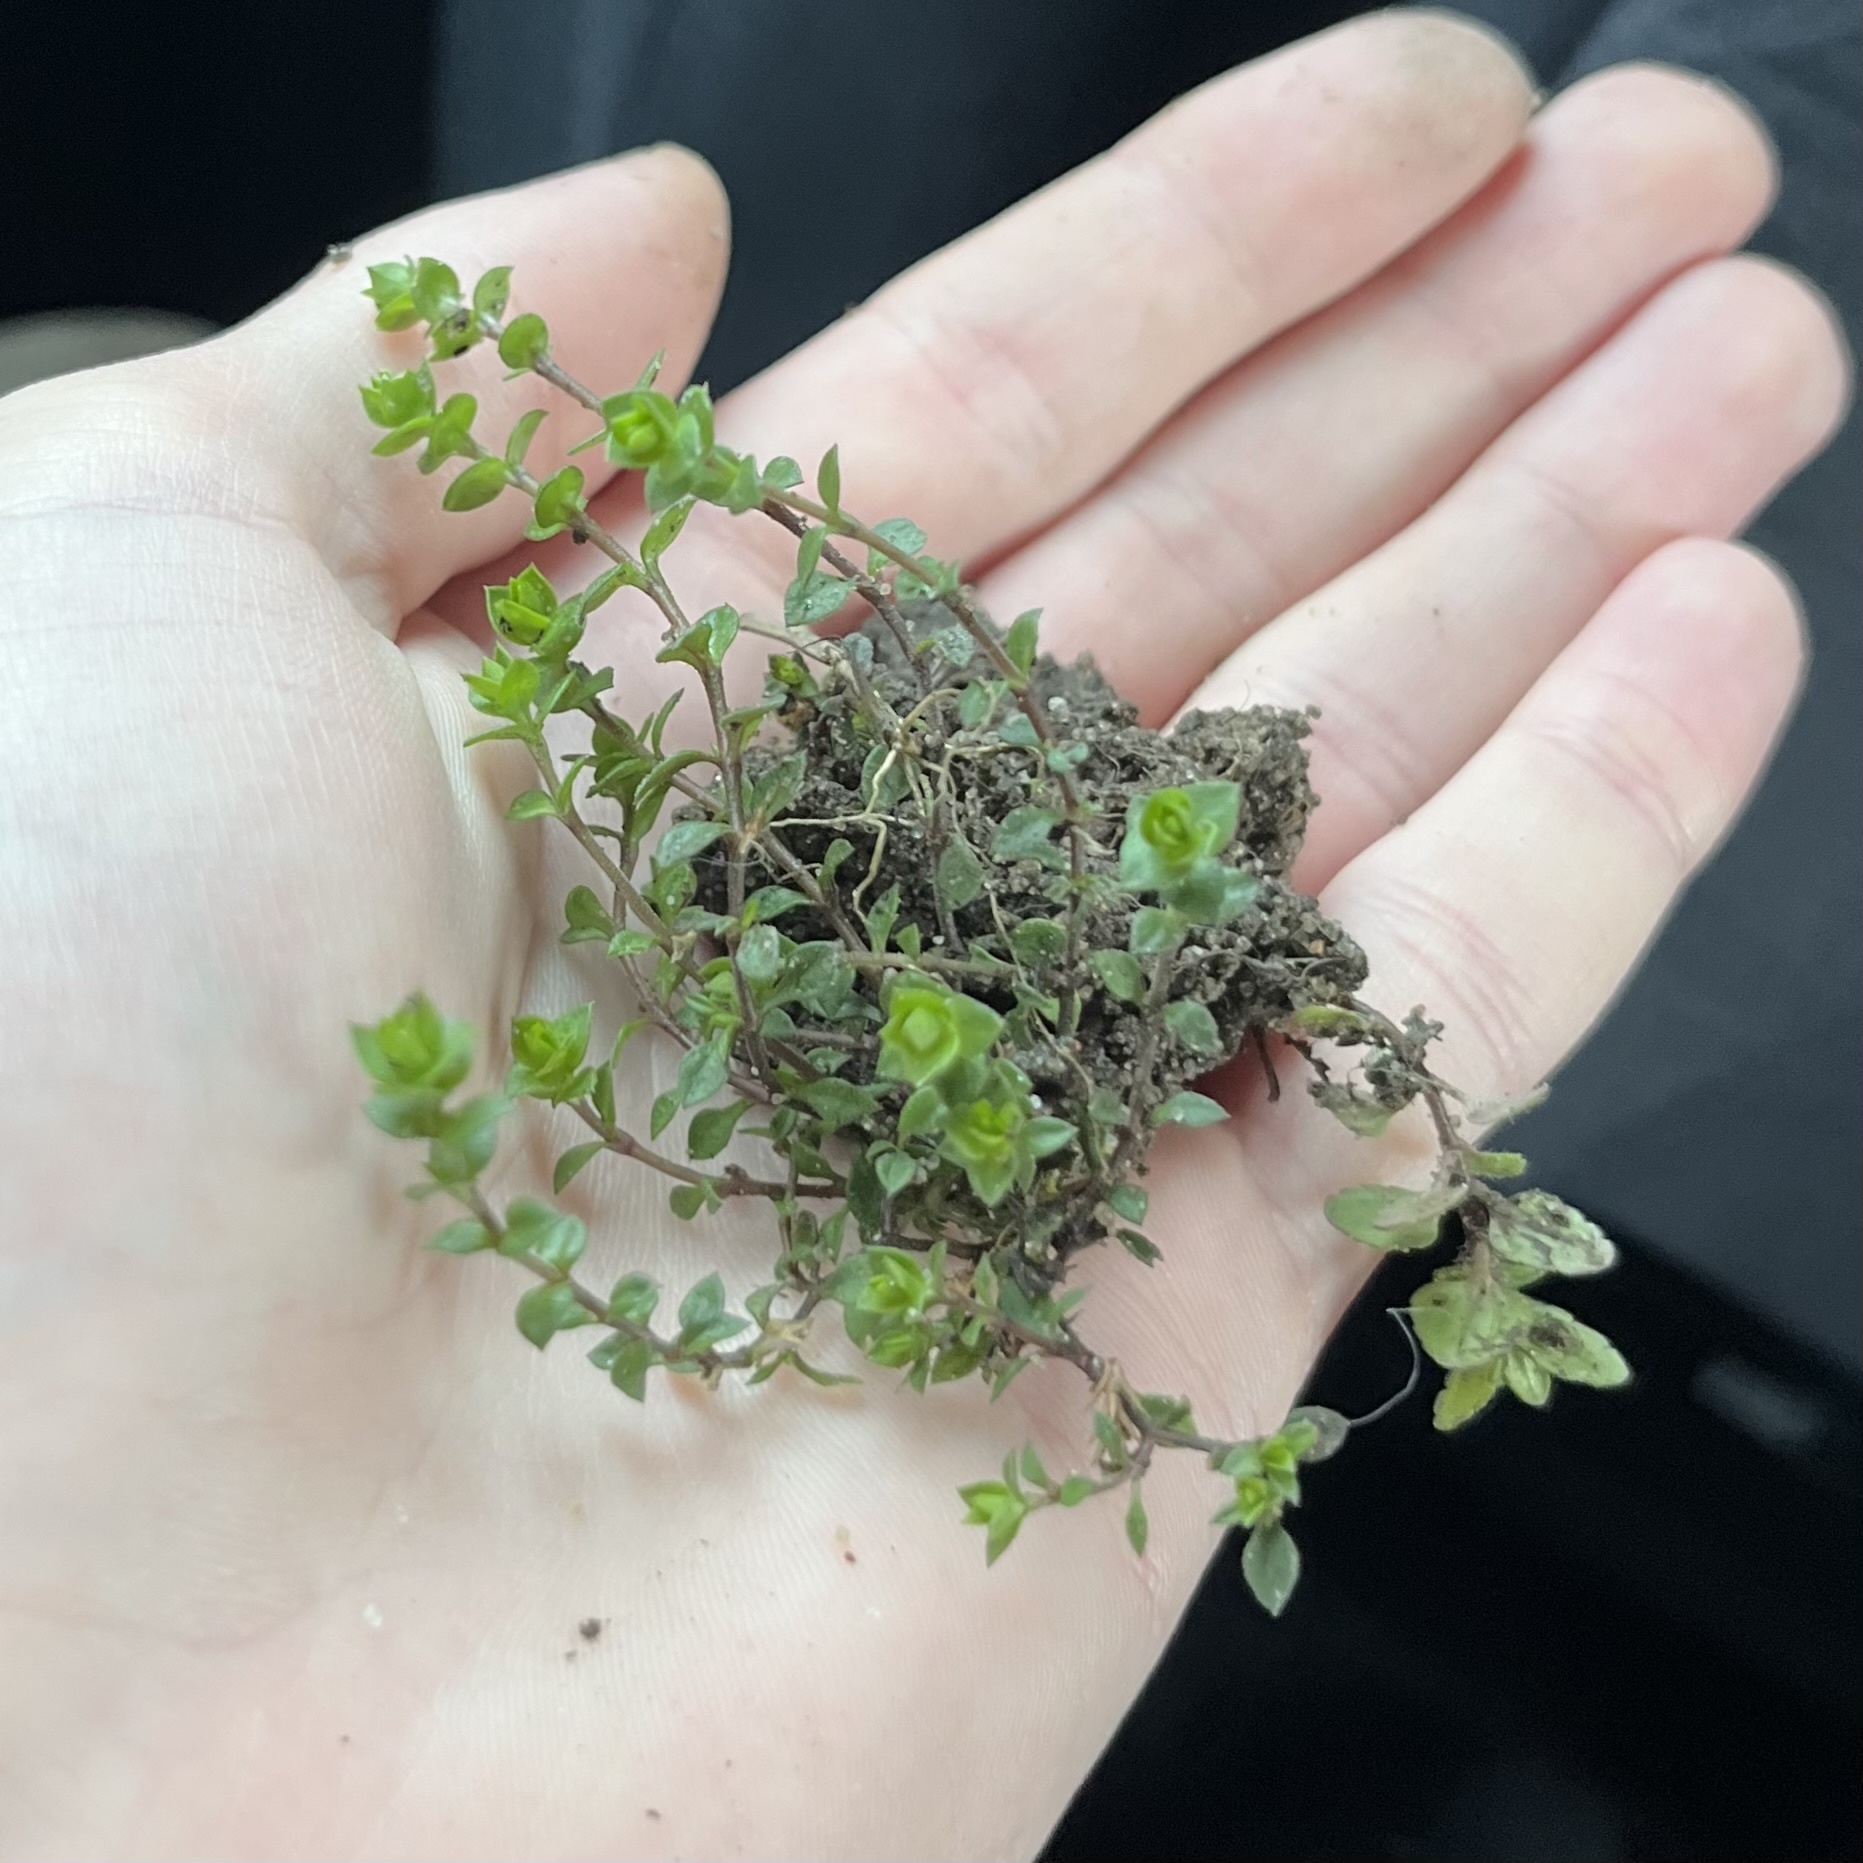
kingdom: Plantae
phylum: Tracheophyta
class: Magnoliopsida
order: Caryophyllales
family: Caryophyllaceae
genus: Arenaria
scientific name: Arenaria serpyllifolia
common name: Thyme-leaved sandwort
